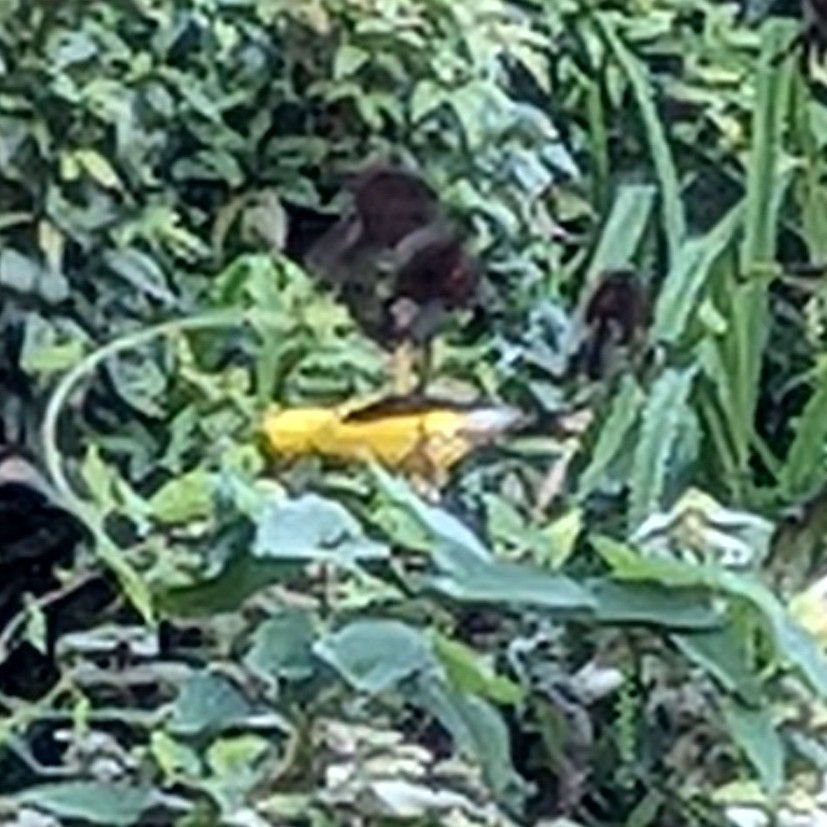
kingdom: Animalia
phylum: Chordata
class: Aves
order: Passeriformes
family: Fringillidae
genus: Spinus
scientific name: Spinus tristis
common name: American goldfinch
